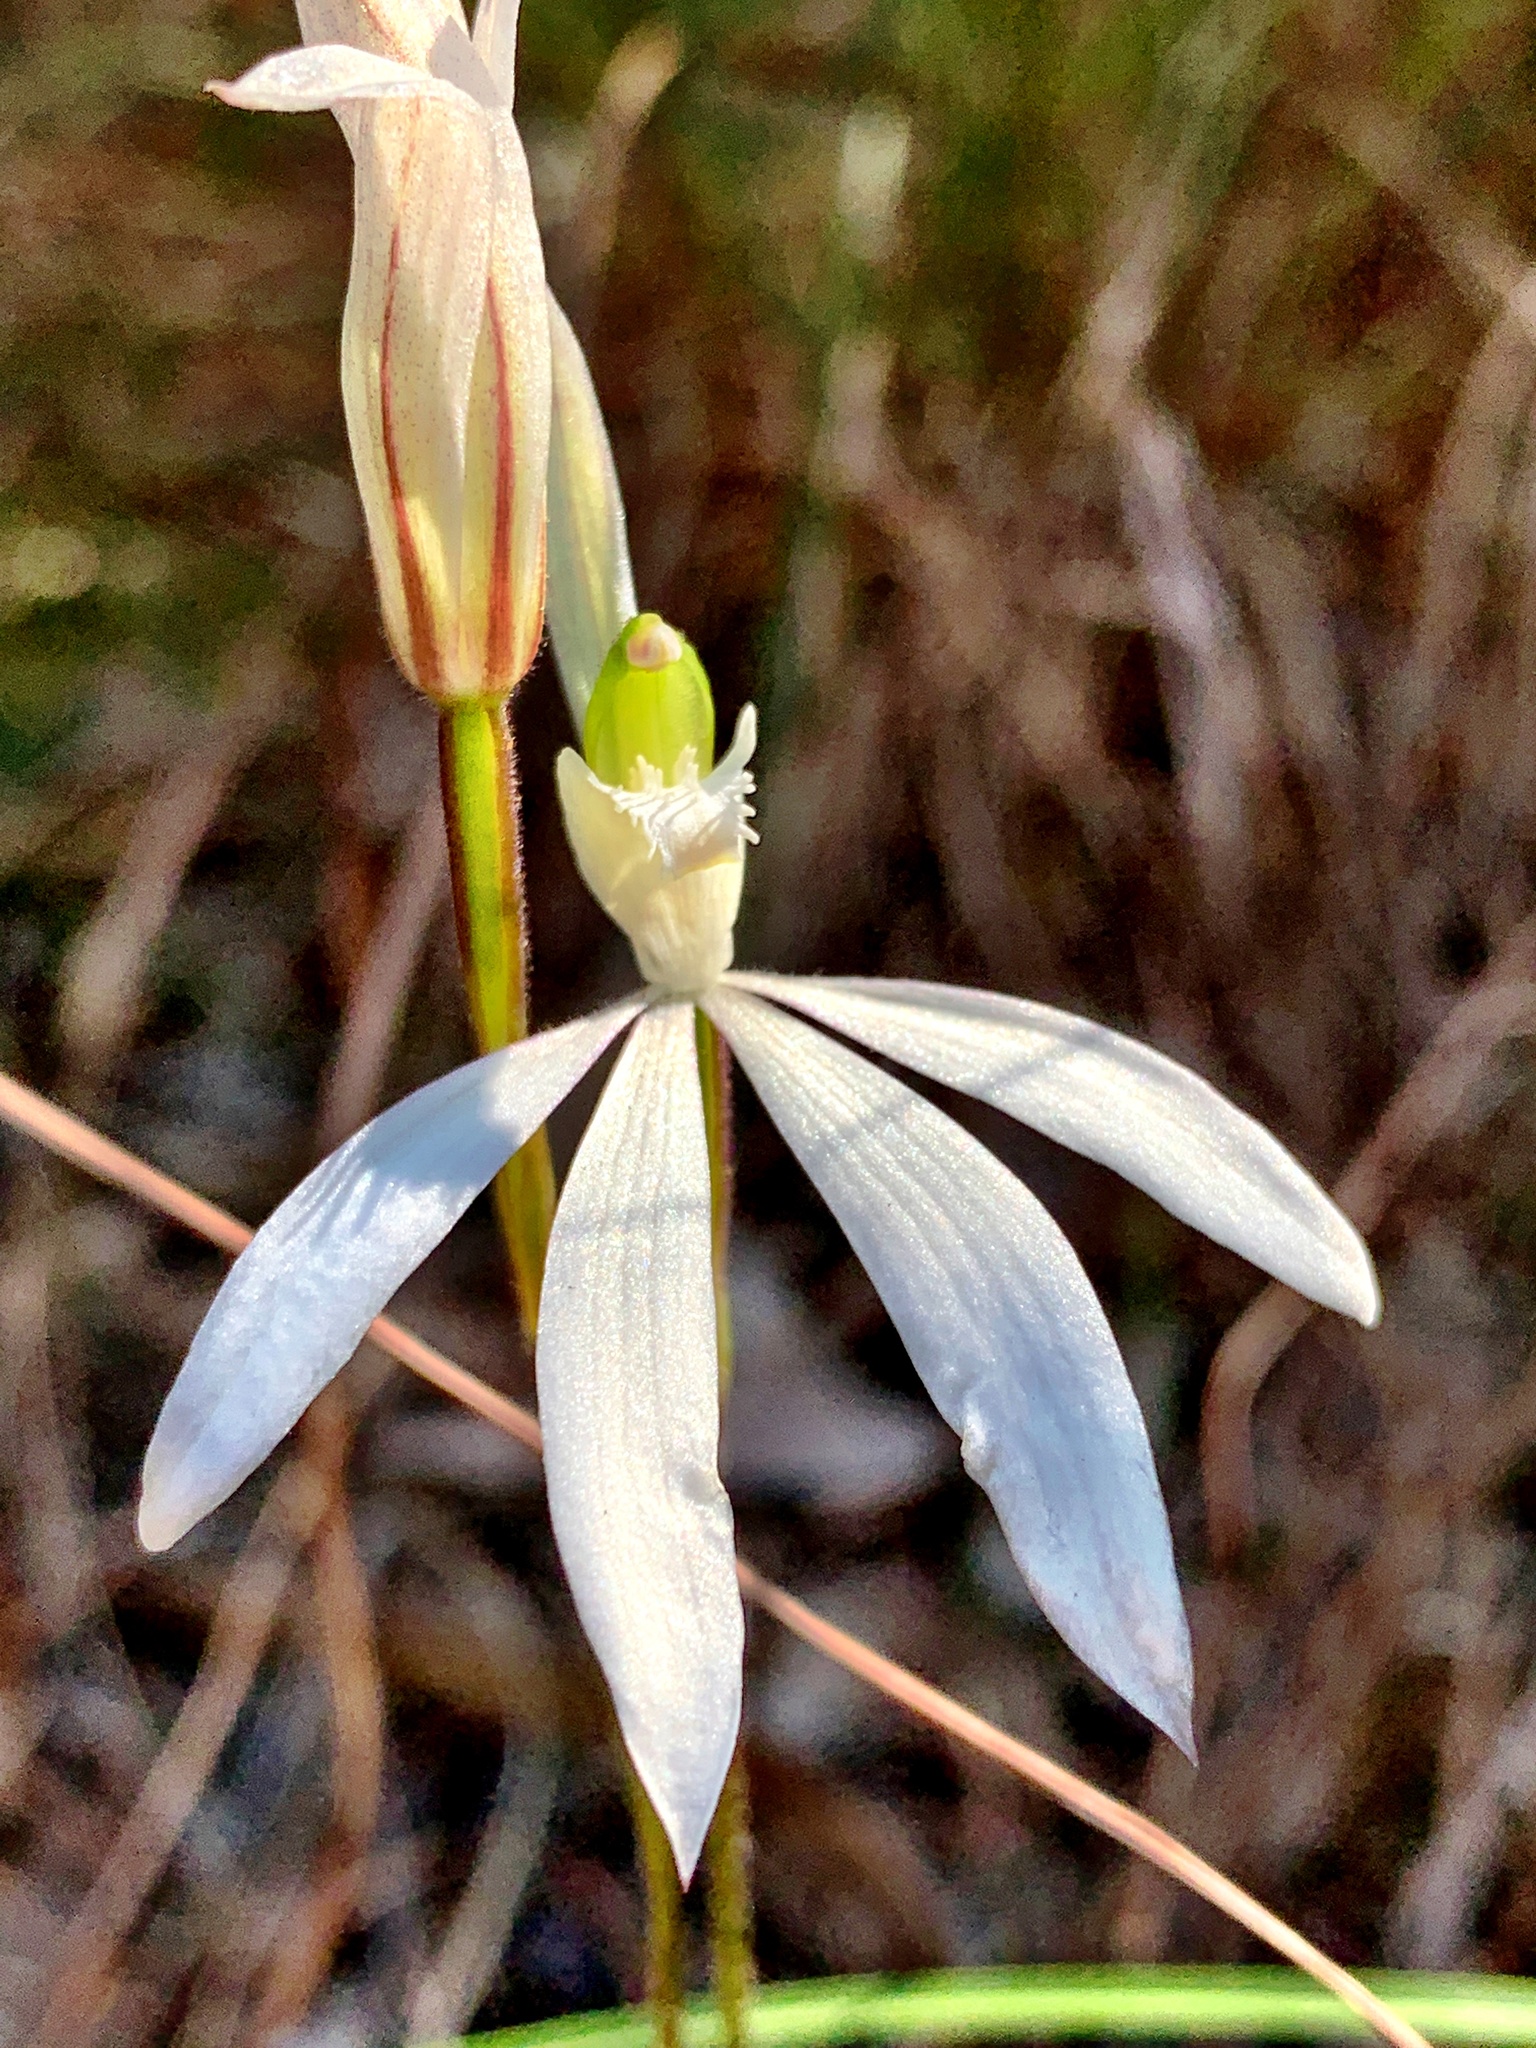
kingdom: Plantae
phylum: Tracheophyta
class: Liliopsida
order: Asparagales
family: Orchidaceae
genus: Caladenia
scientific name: Caladenia catenata
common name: White caladenia
